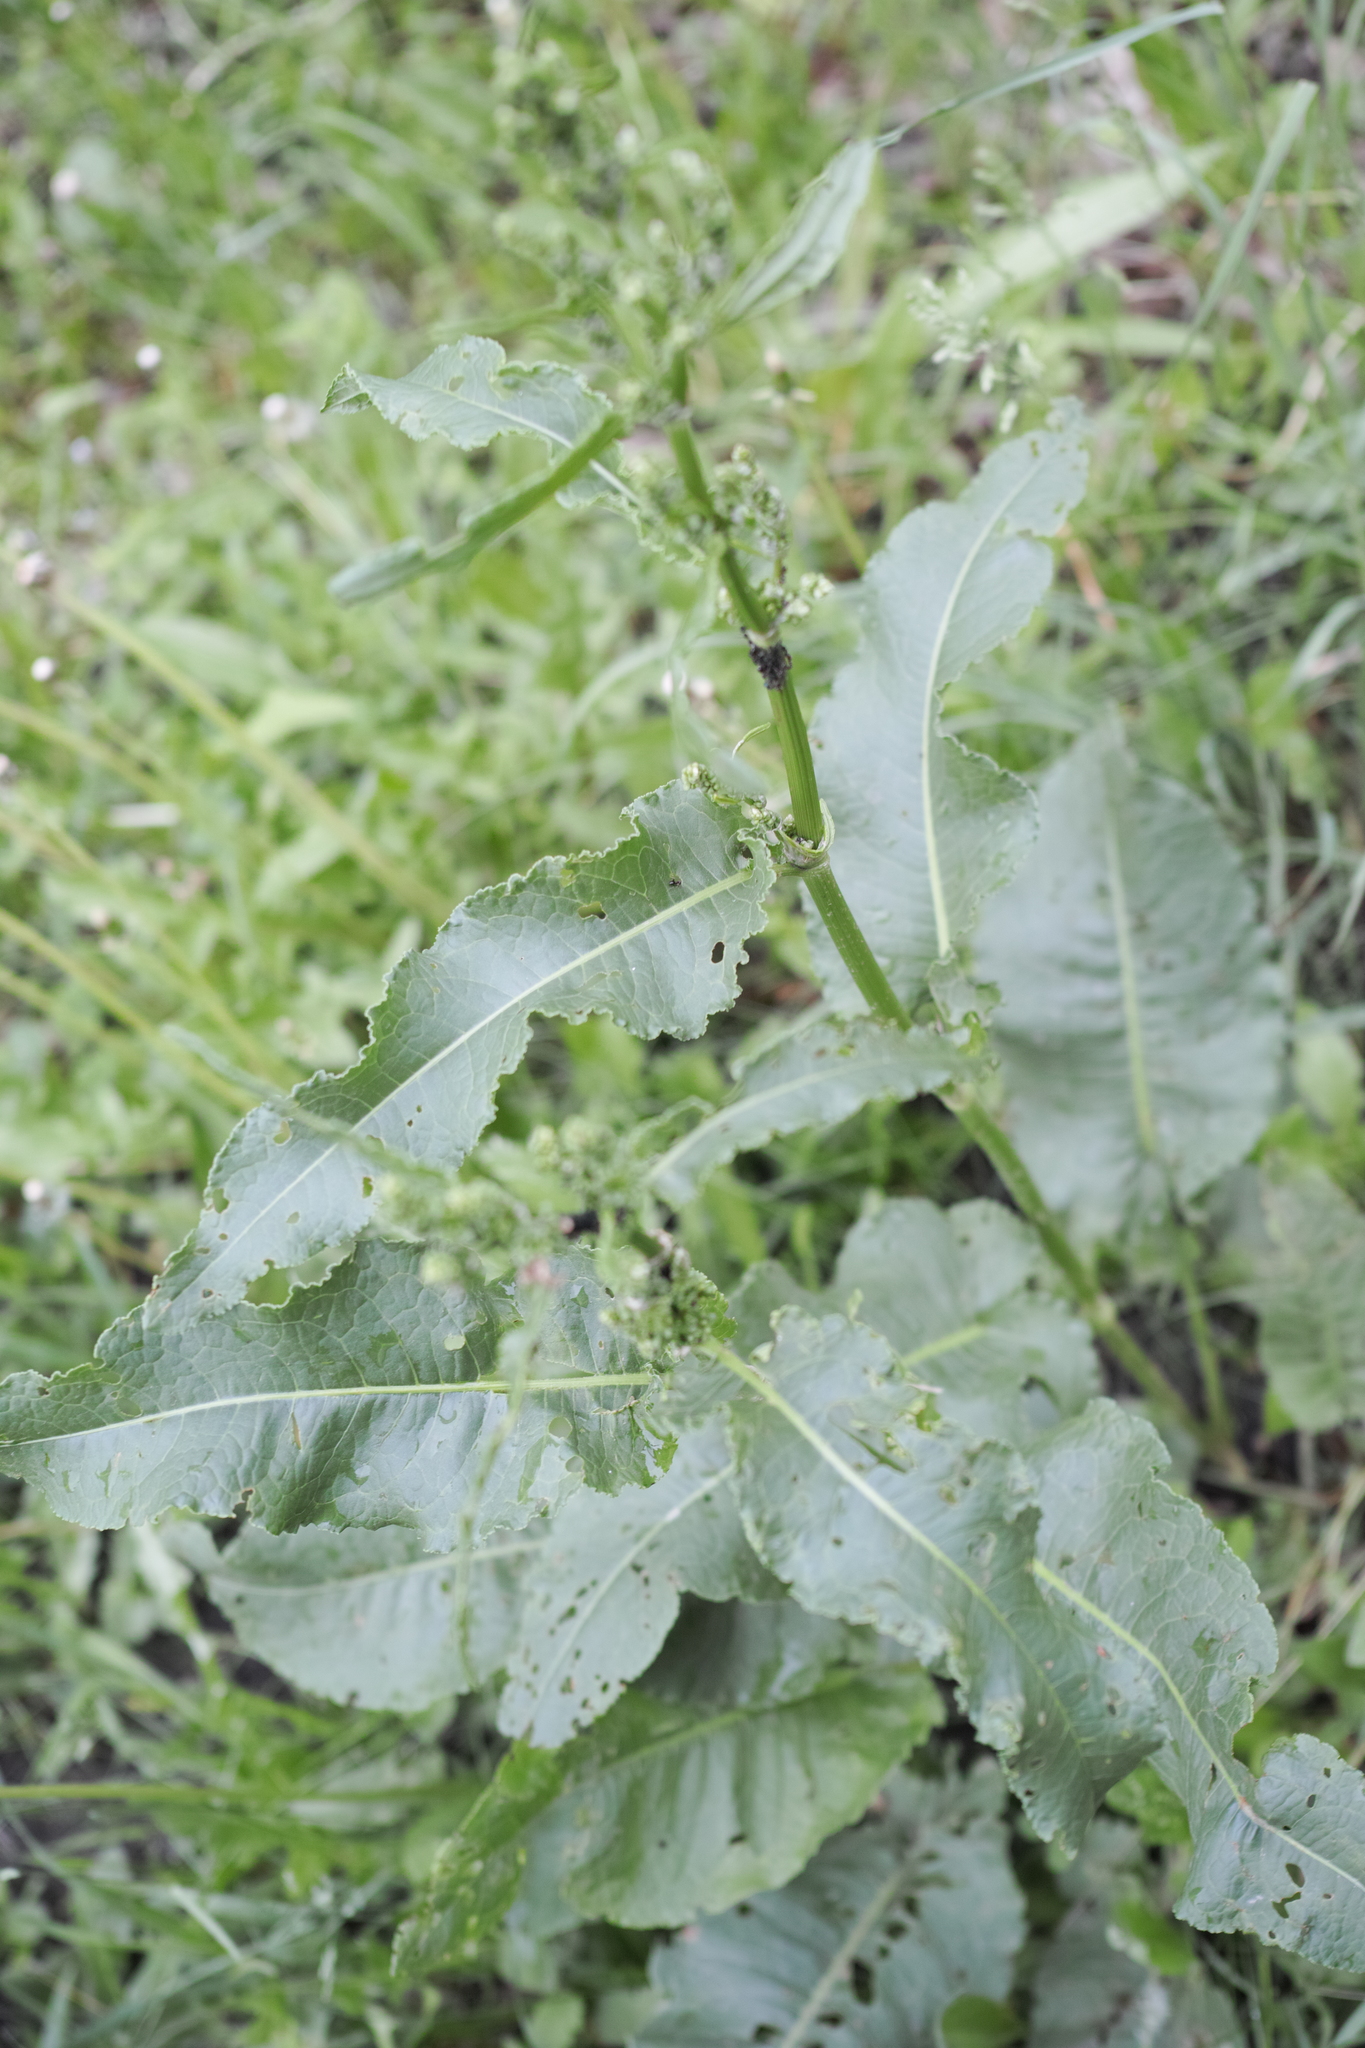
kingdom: Plantae
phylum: Tracheophyta
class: Magnoliopsida
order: Caryophyllales
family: Polygonaceae
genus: Rumex
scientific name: Rumex confertus
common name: Russian dock
